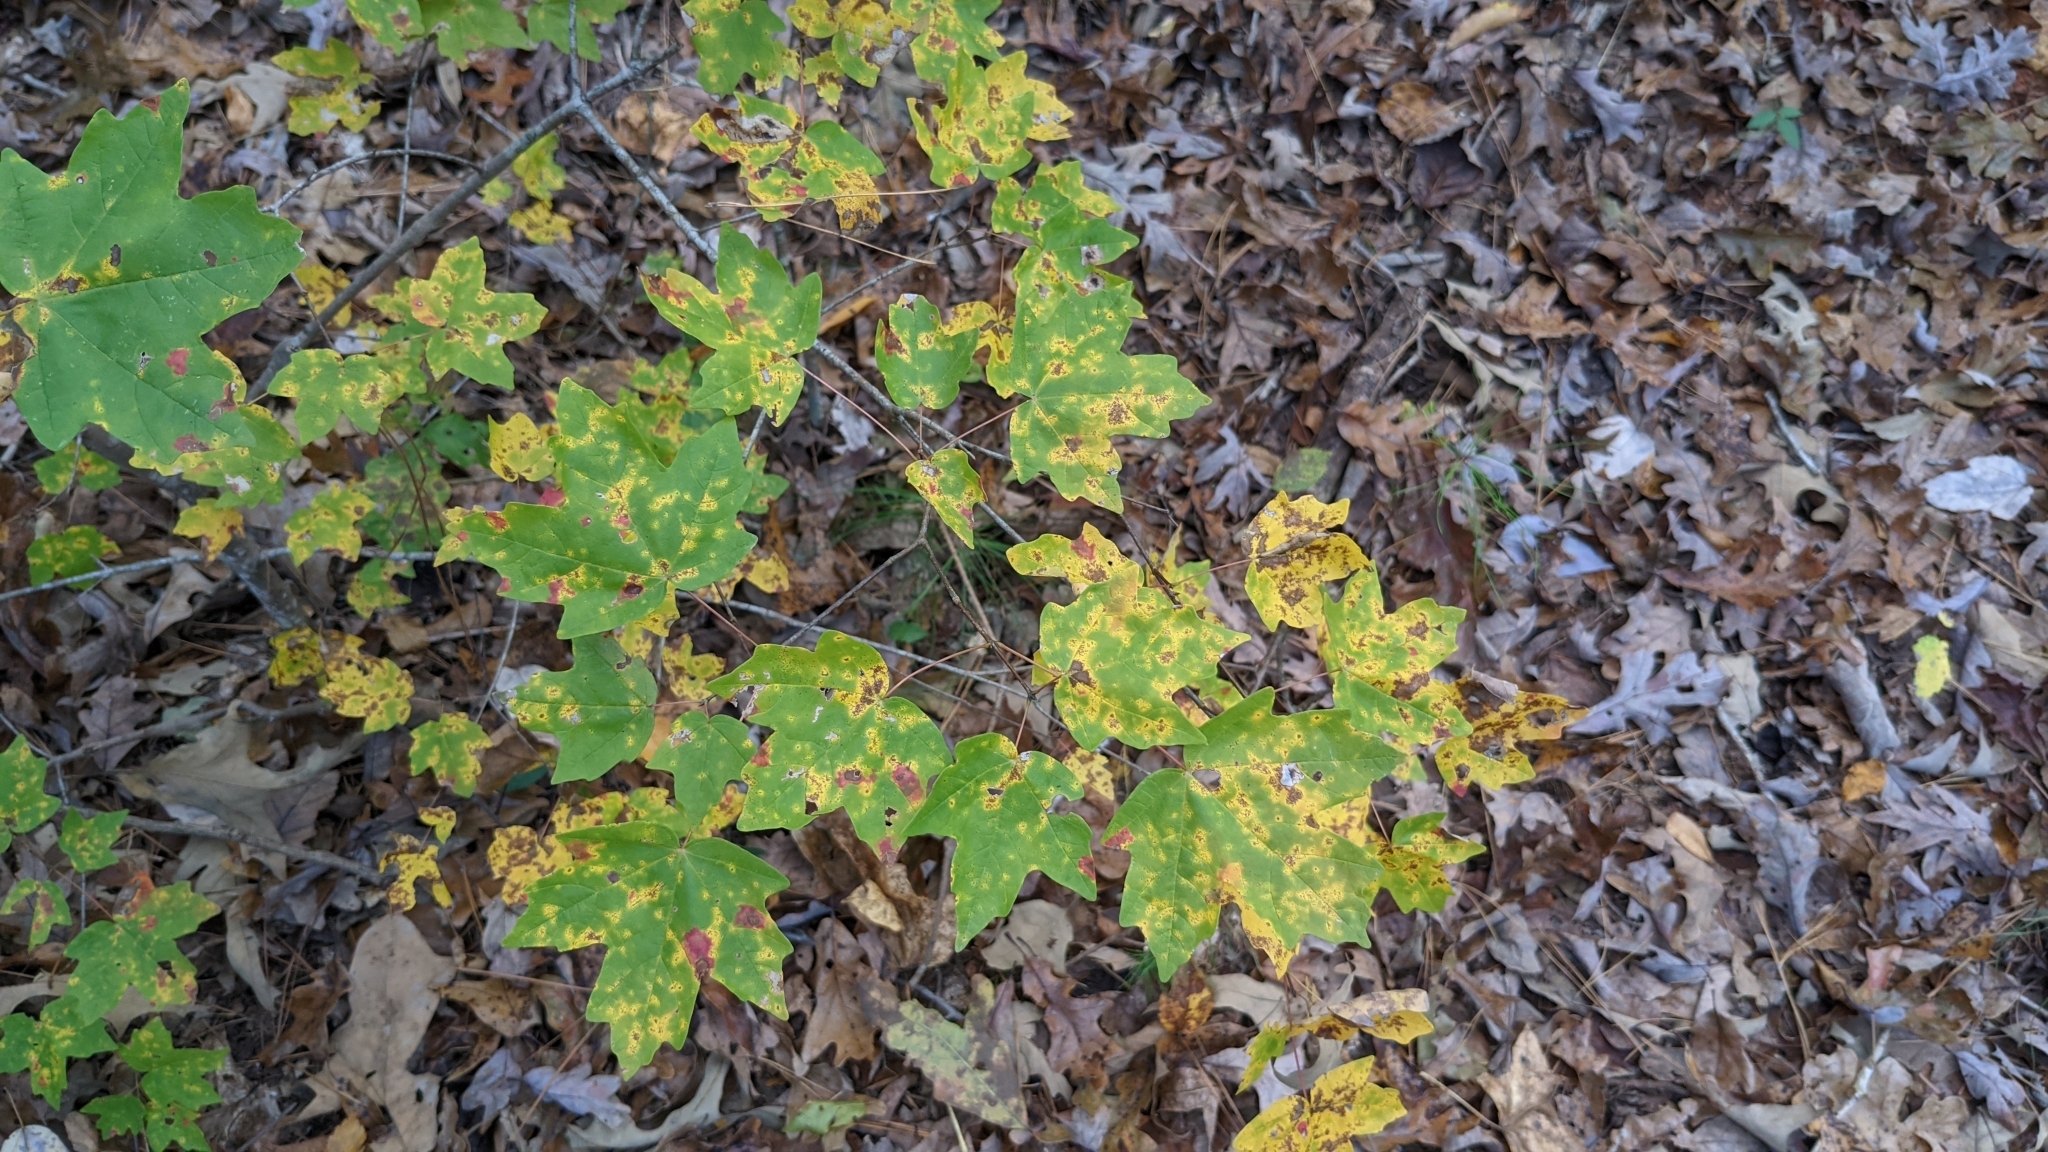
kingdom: Plantae
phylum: Tracheophyta
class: Magnoliopsida
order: Sapindales
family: Sapindaceae
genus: Acer
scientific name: Acer floridanum
